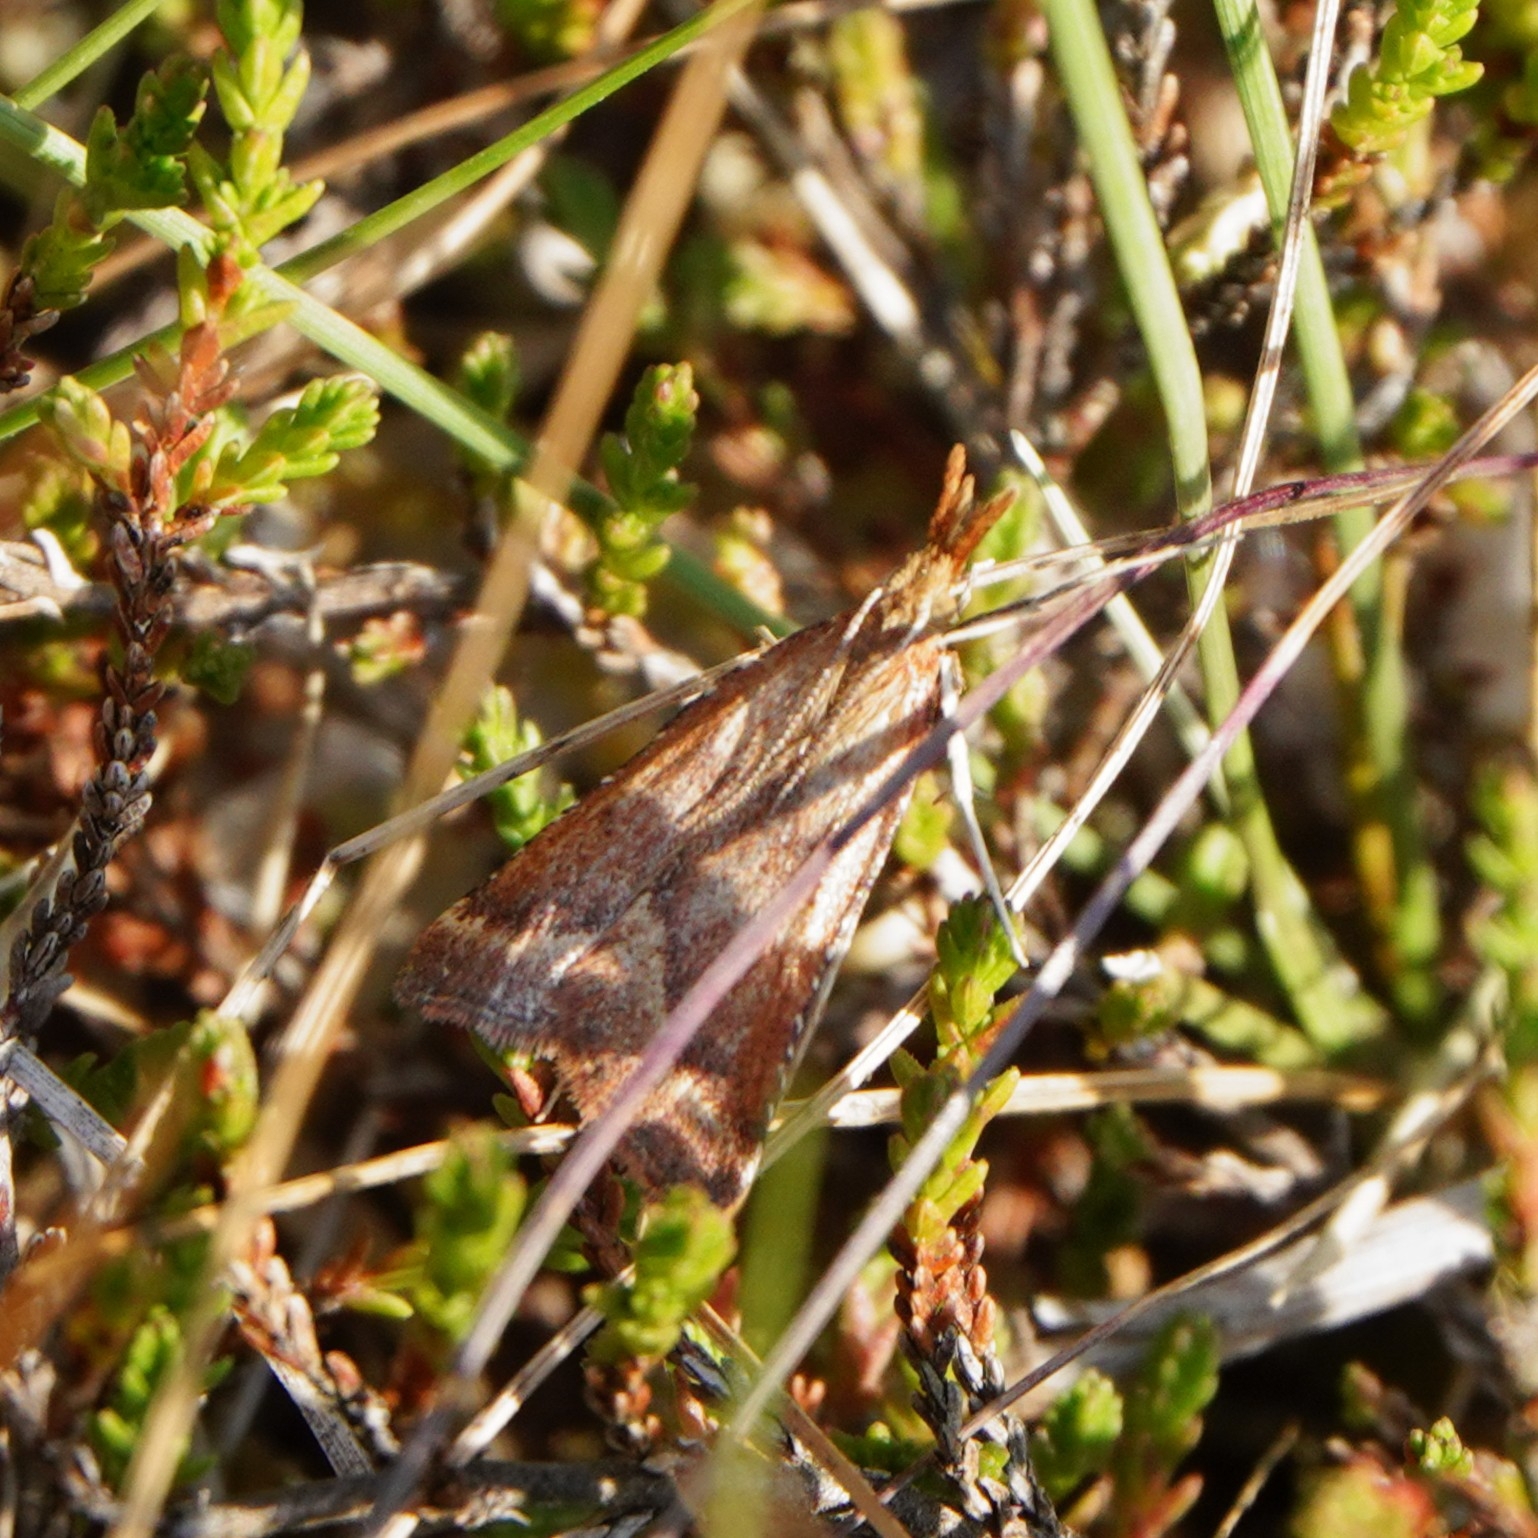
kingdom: Animalia
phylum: Arthropoda
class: Insecta
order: Lepidoptera
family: Pyralidae
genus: Synaphe
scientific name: Synaphe punctalis
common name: Long-legged tabby
